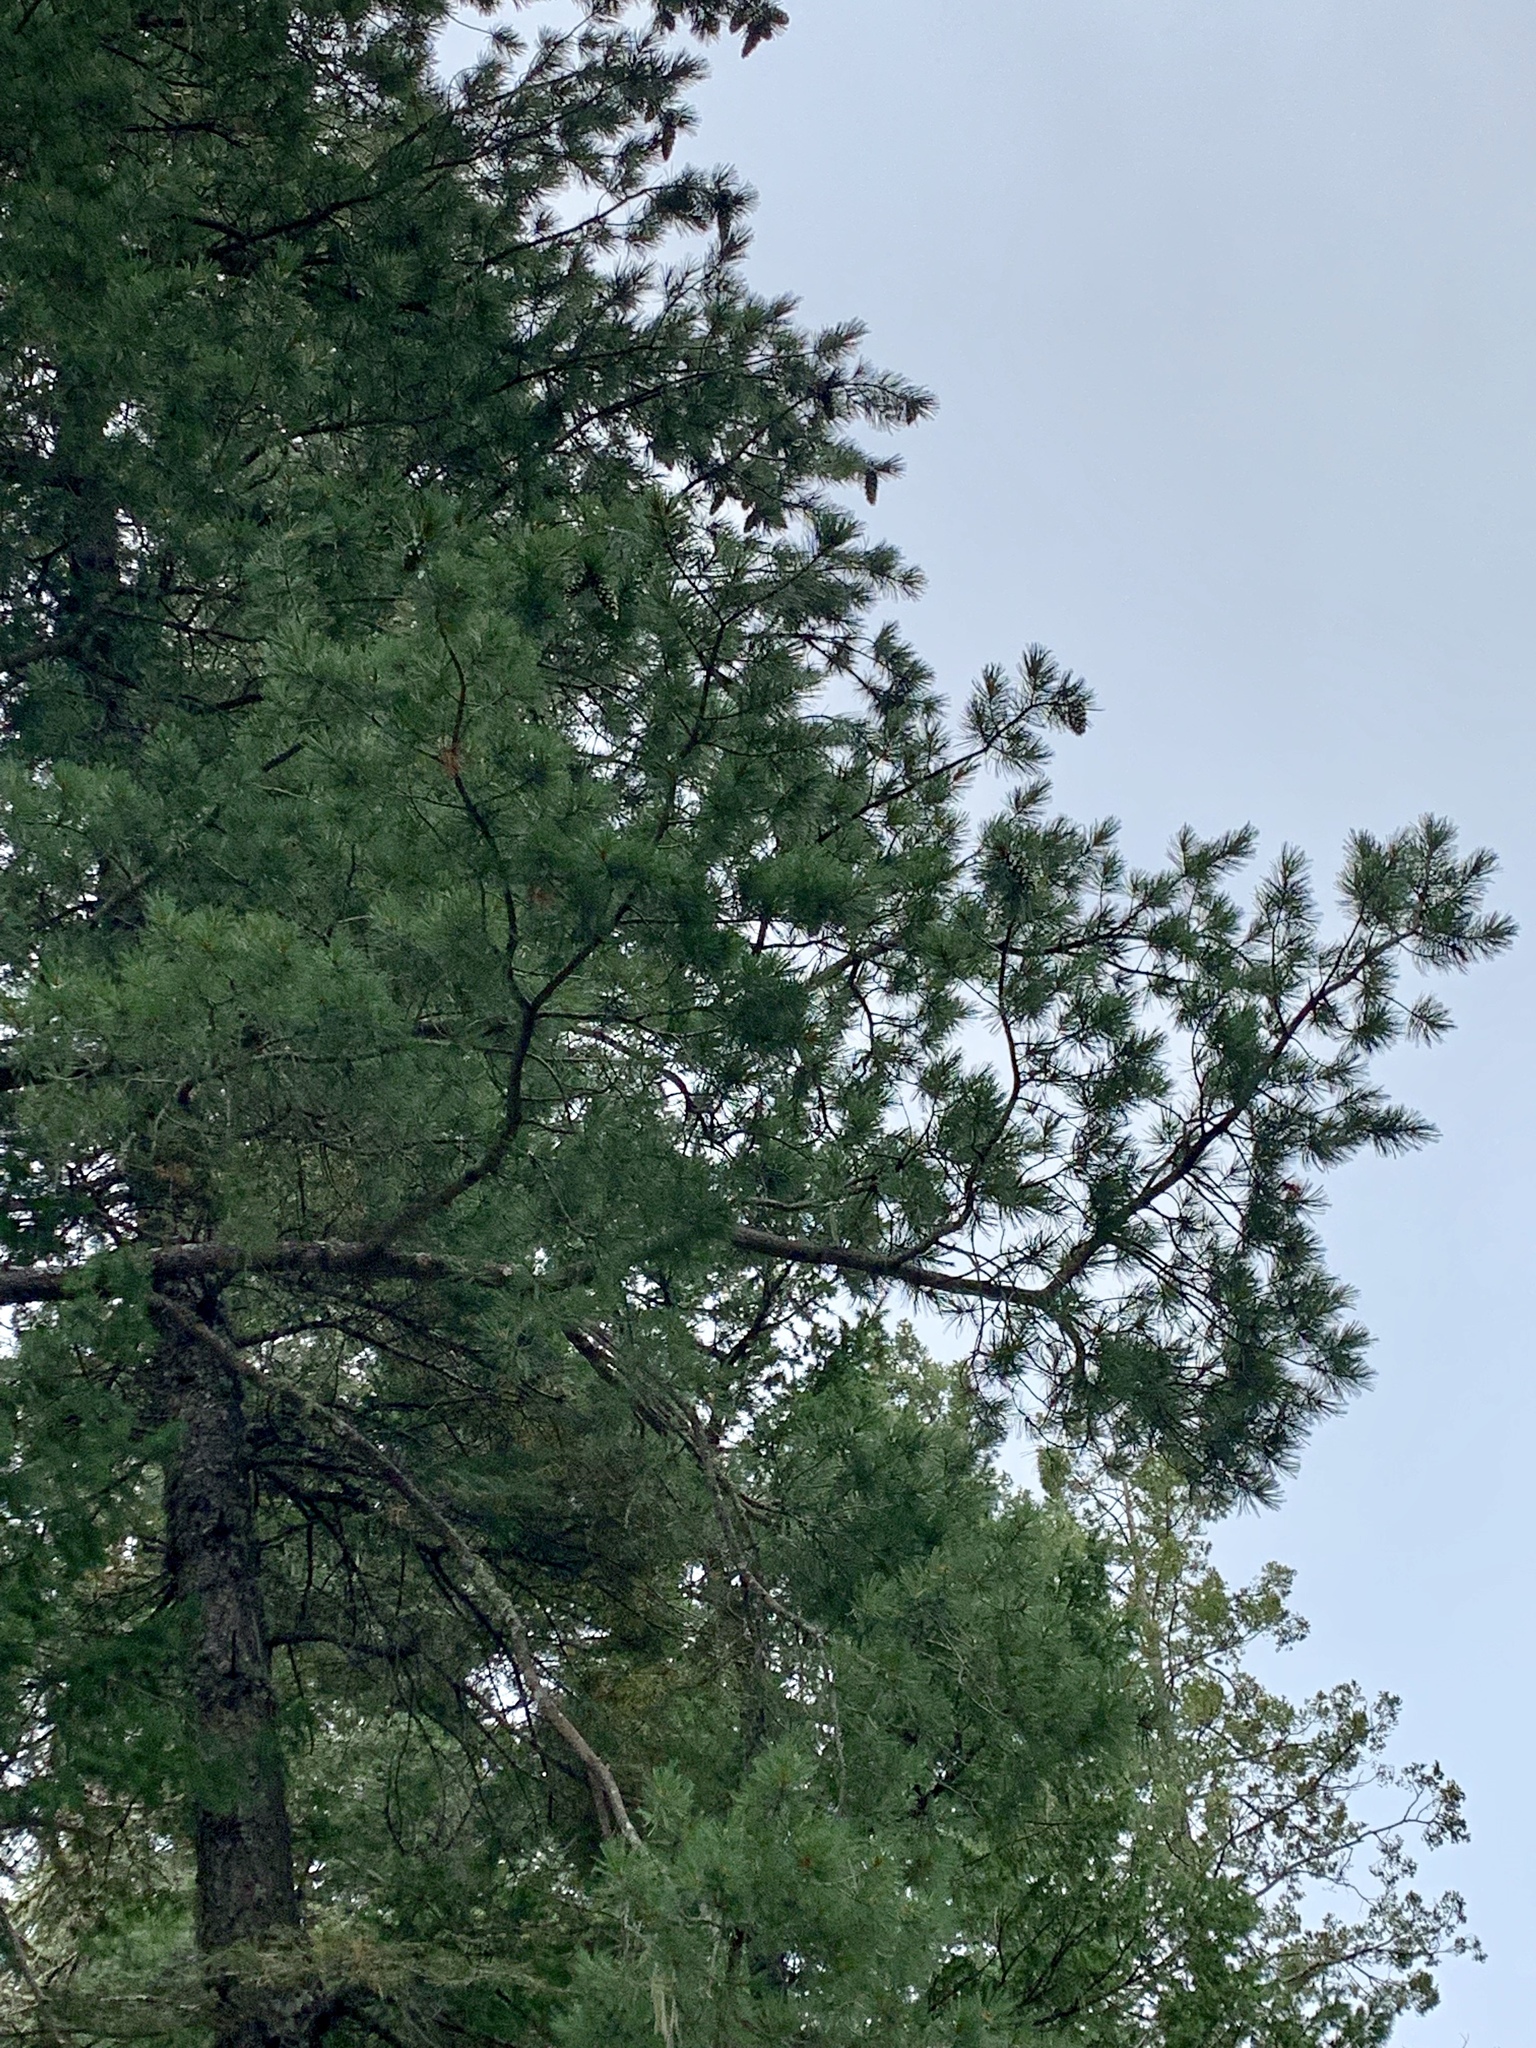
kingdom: Plantae
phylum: Tracheophyta
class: Pinopsida
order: Pinales
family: Pinaceae
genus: Pinus
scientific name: Pinus strobiformis
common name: Southwestern white pine
